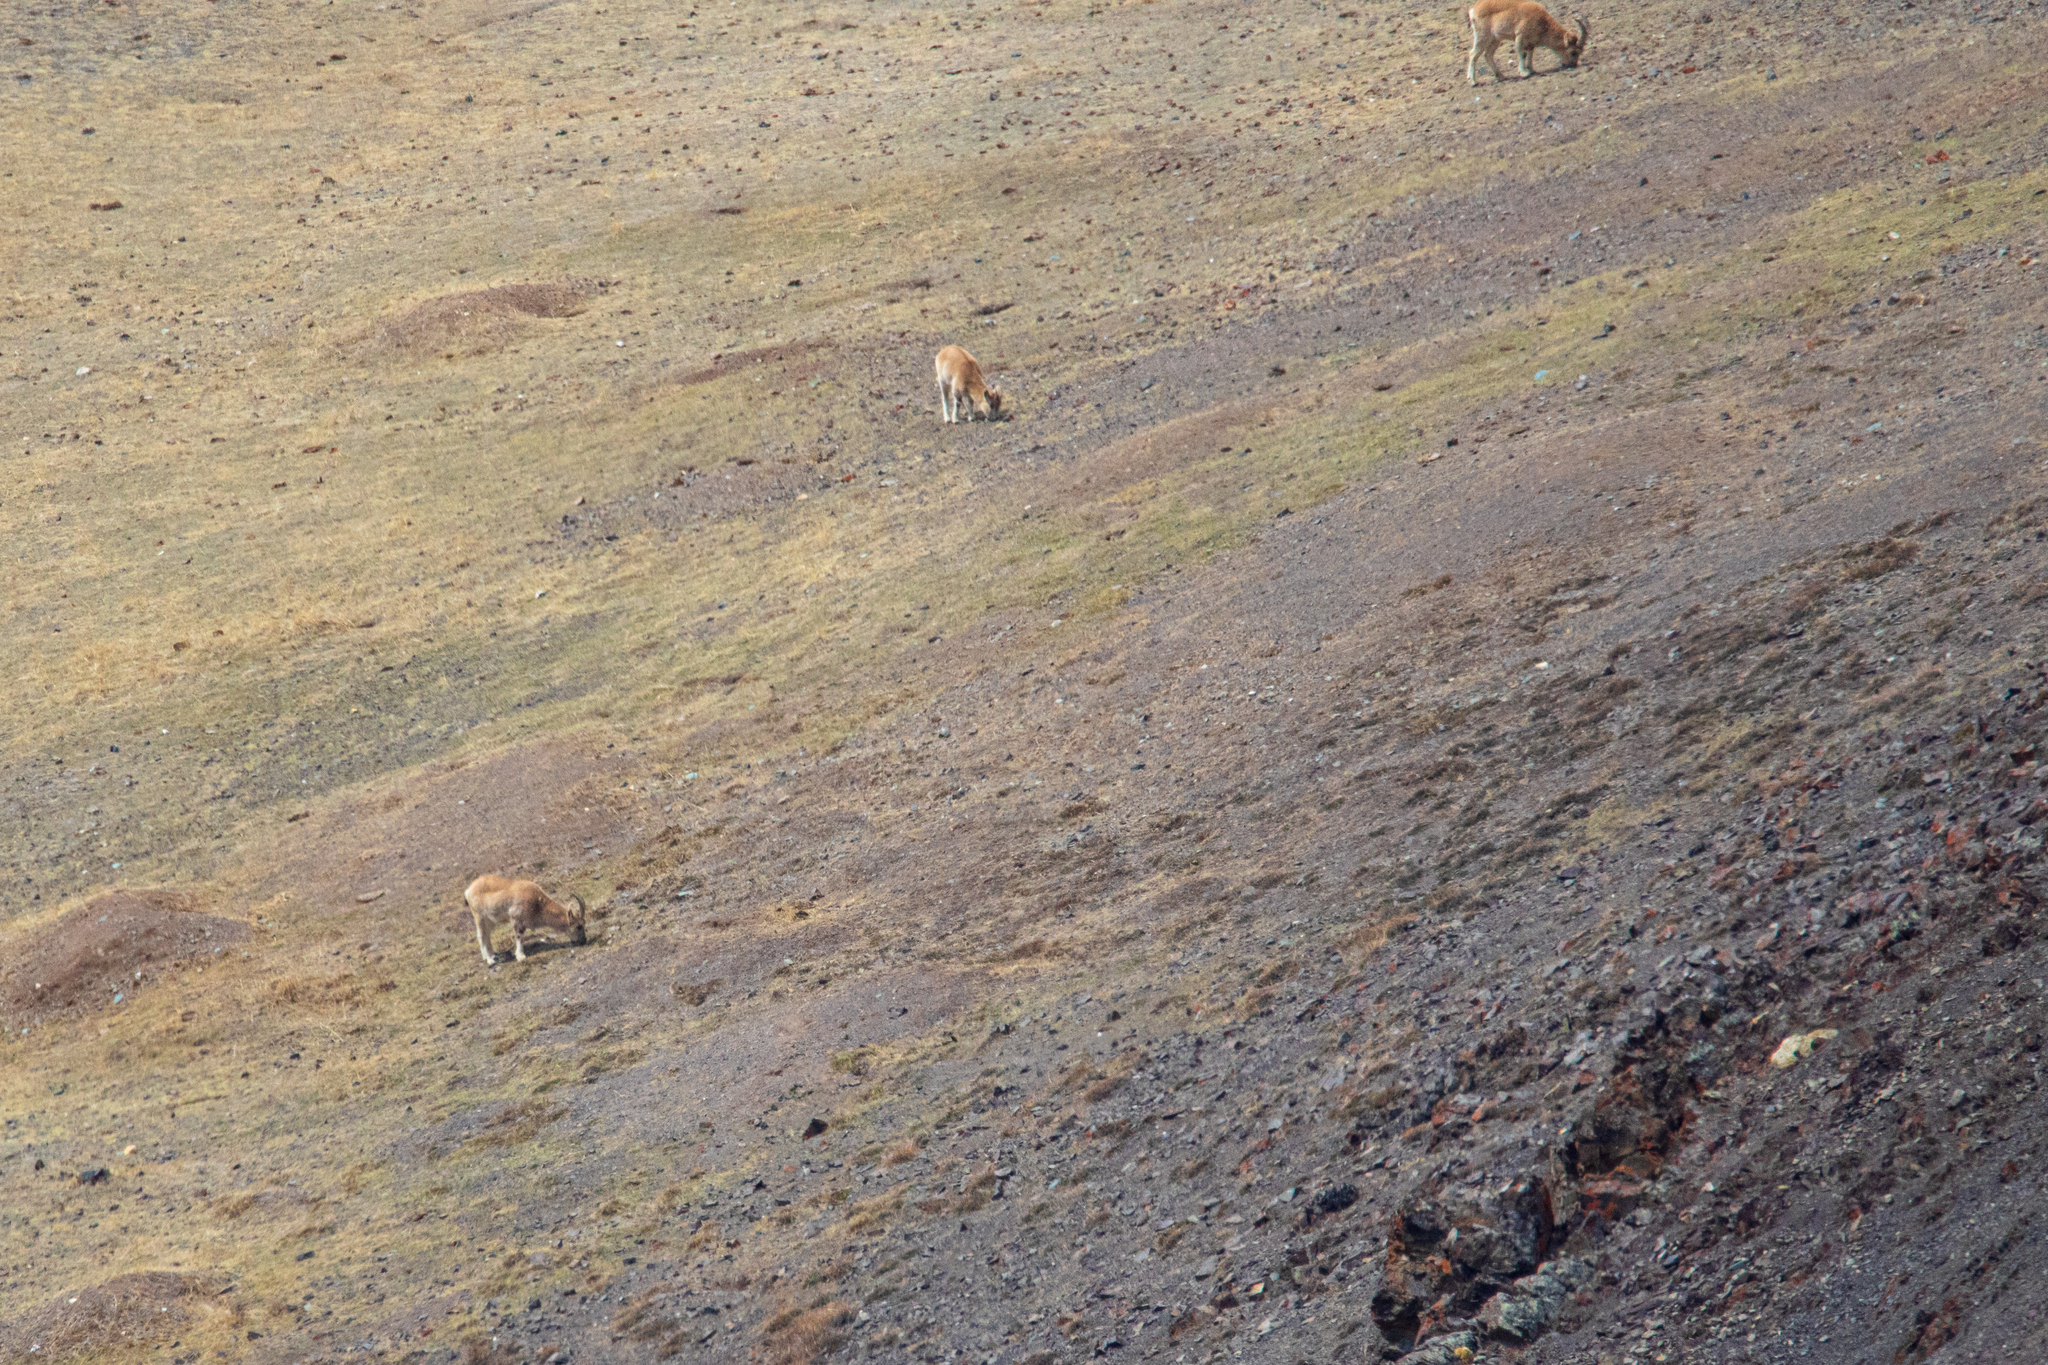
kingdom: Animalia
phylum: Chordata
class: Mammalia
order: Artiodactyla
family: Bovidae
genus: Capra
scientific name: Capra sibirica
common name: Siberian ibex
